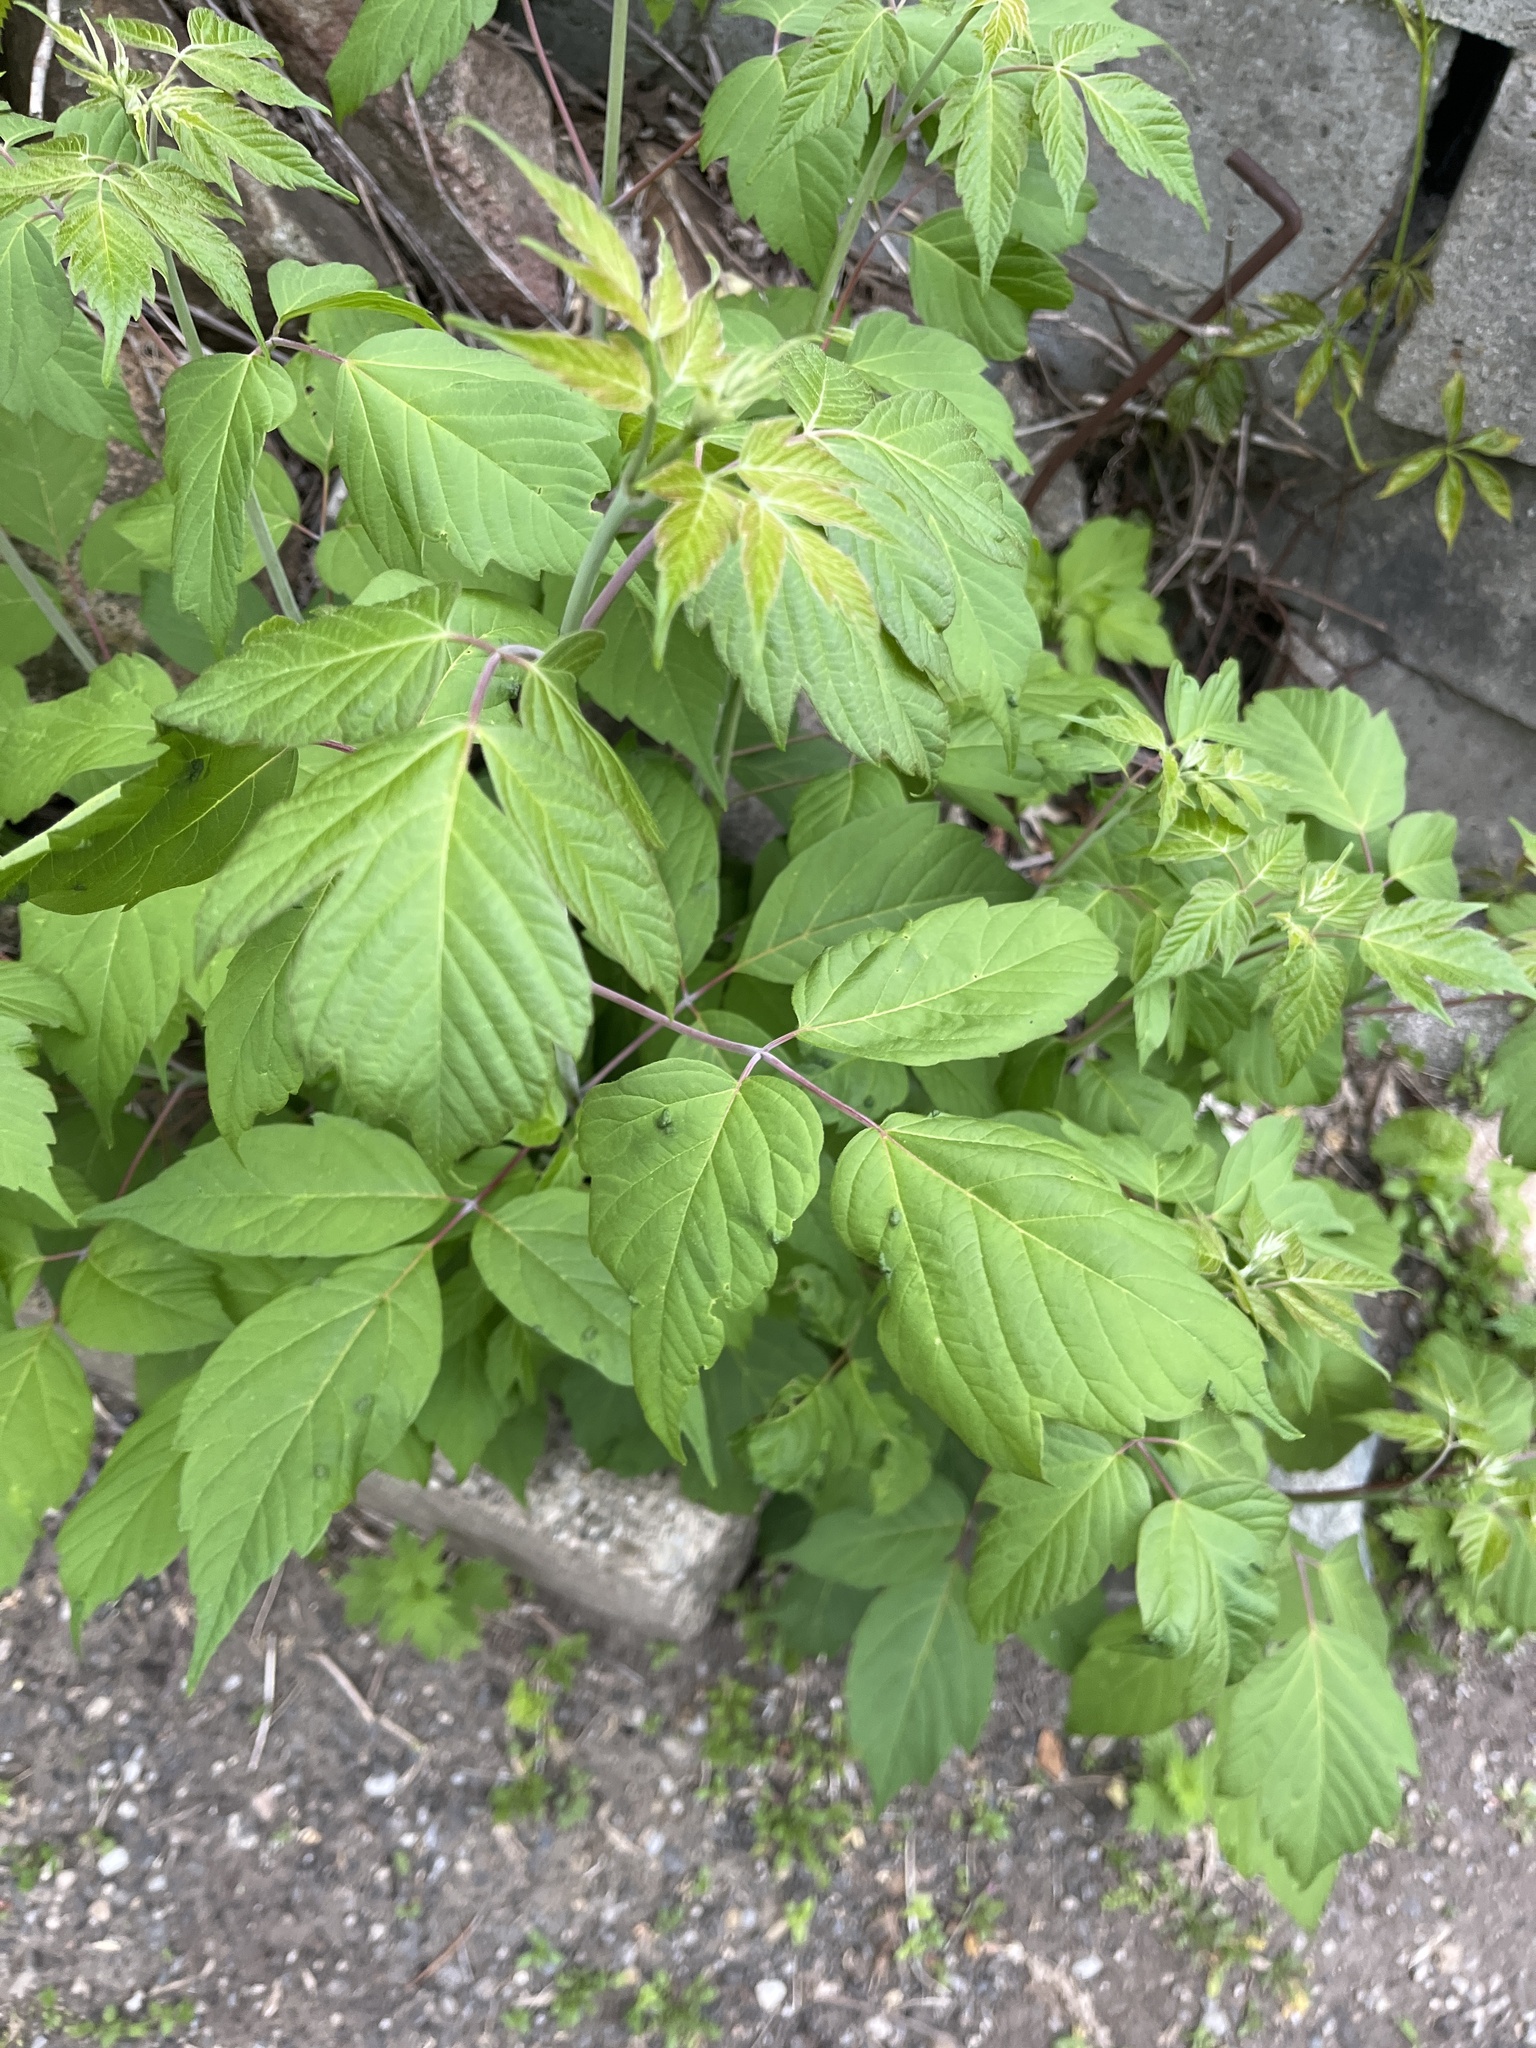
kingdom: Plantae
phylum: Tracheophyta
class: Magnoliopsida
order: Sapindales
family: Sapindaceae
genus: Acer
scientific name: Acer negundo
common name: Ashleaf maple
